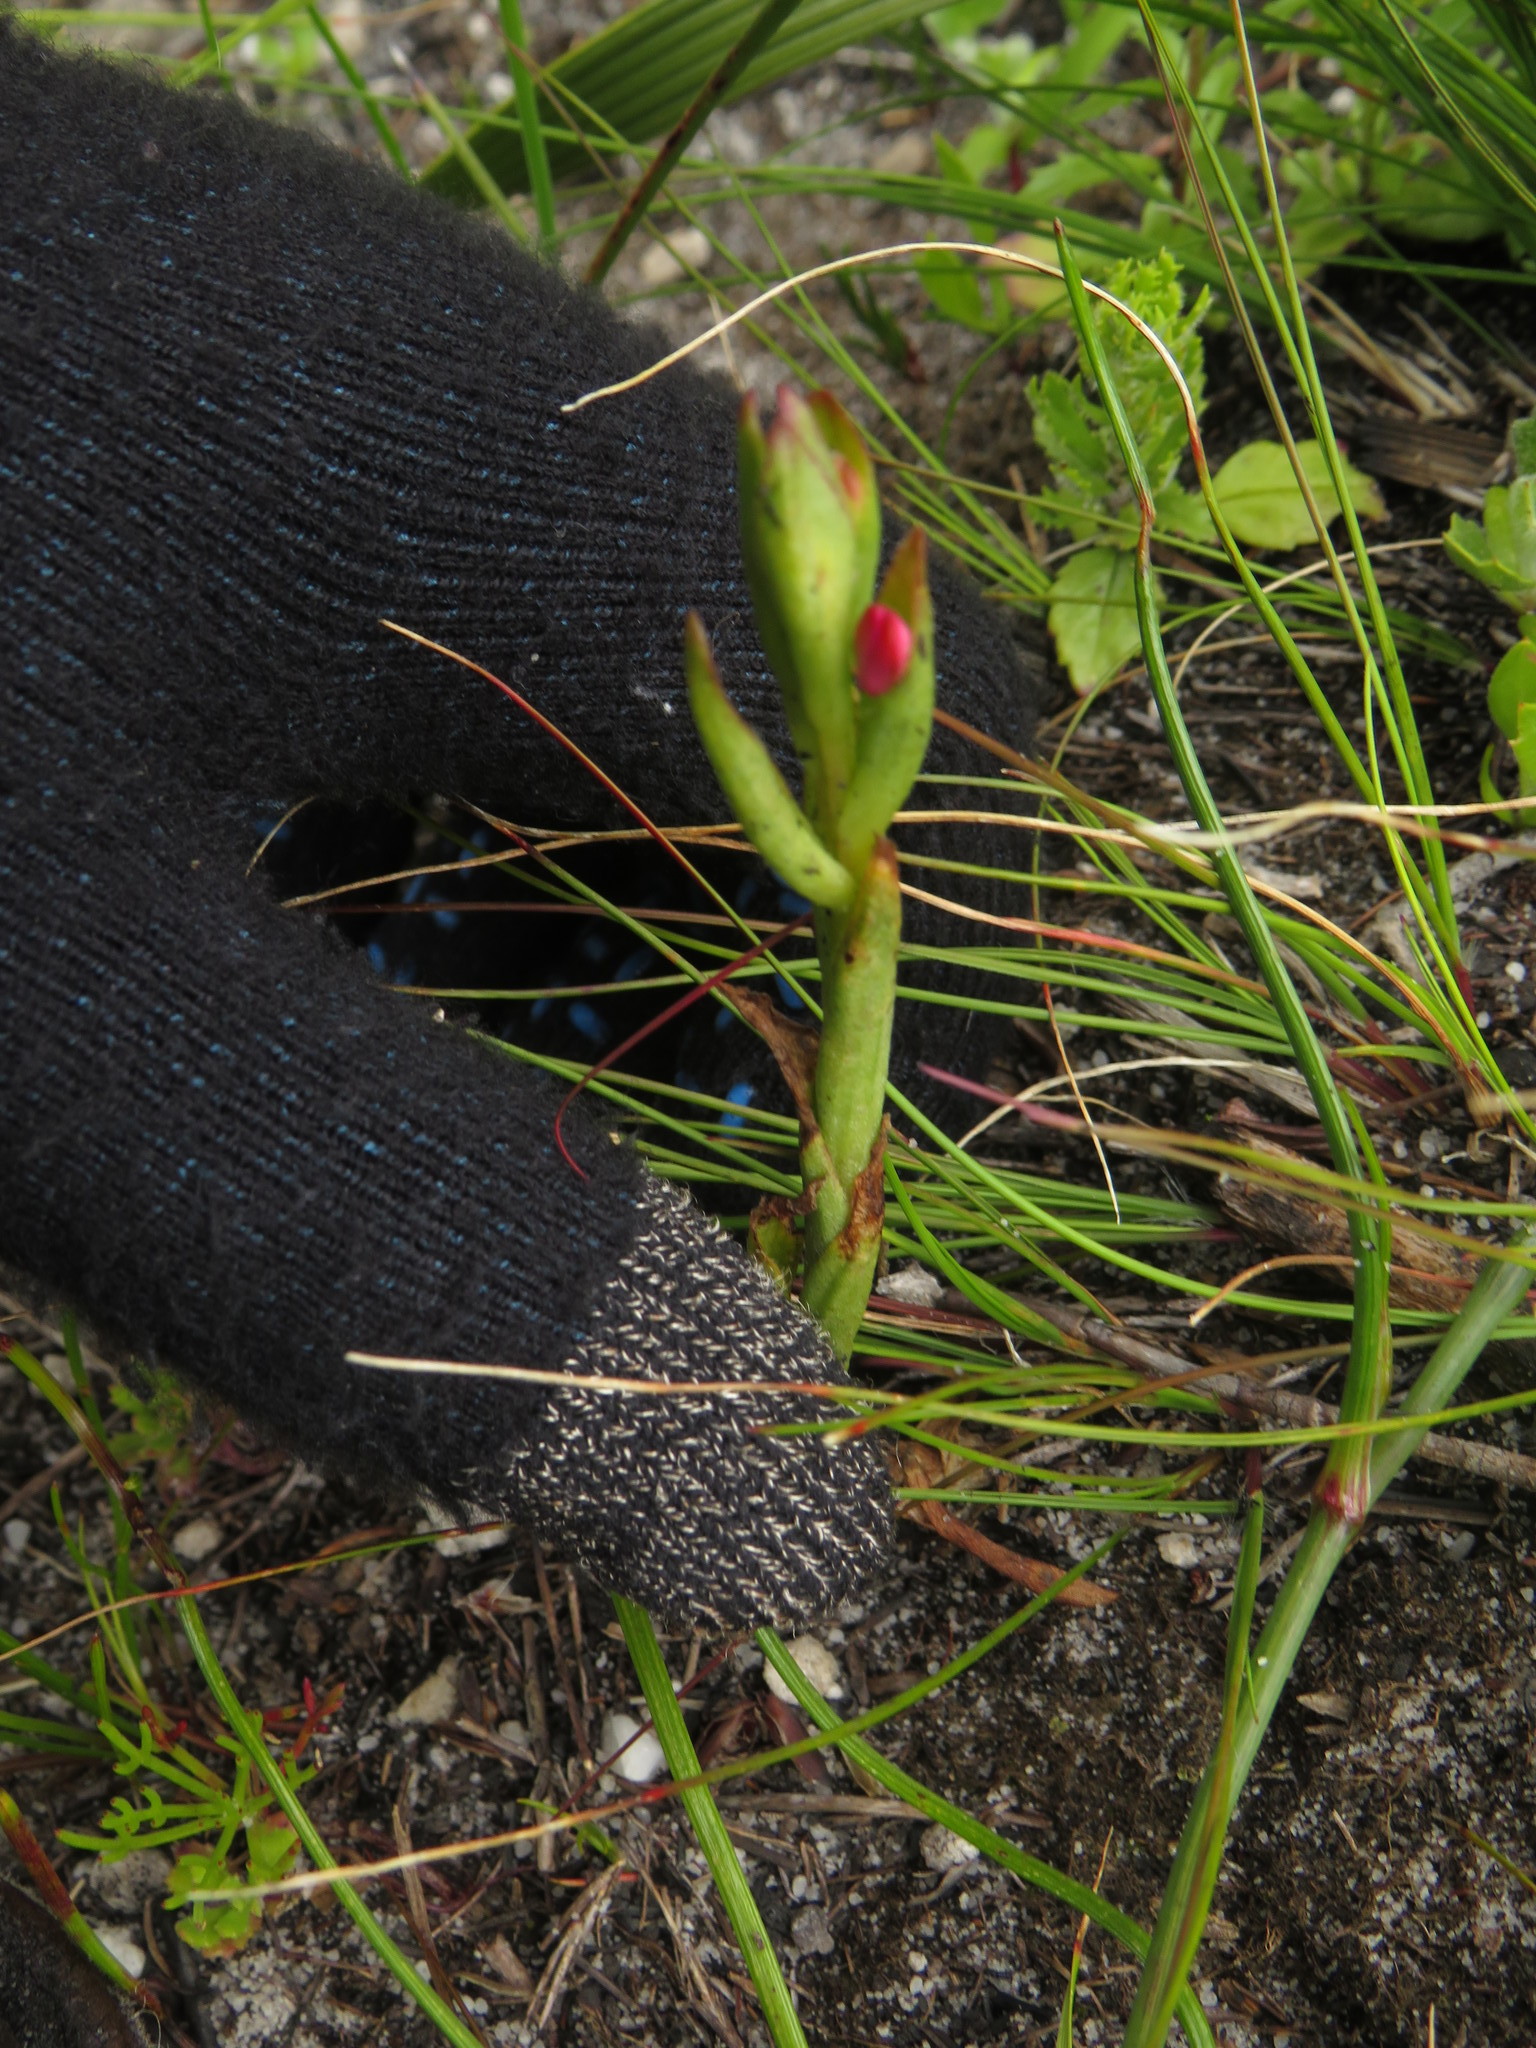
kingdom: Plantae
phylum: Tracheophyta
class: Liliopsida
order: Asparagales
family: Orchidaceae
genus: Disa
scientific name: Disa vaginata
